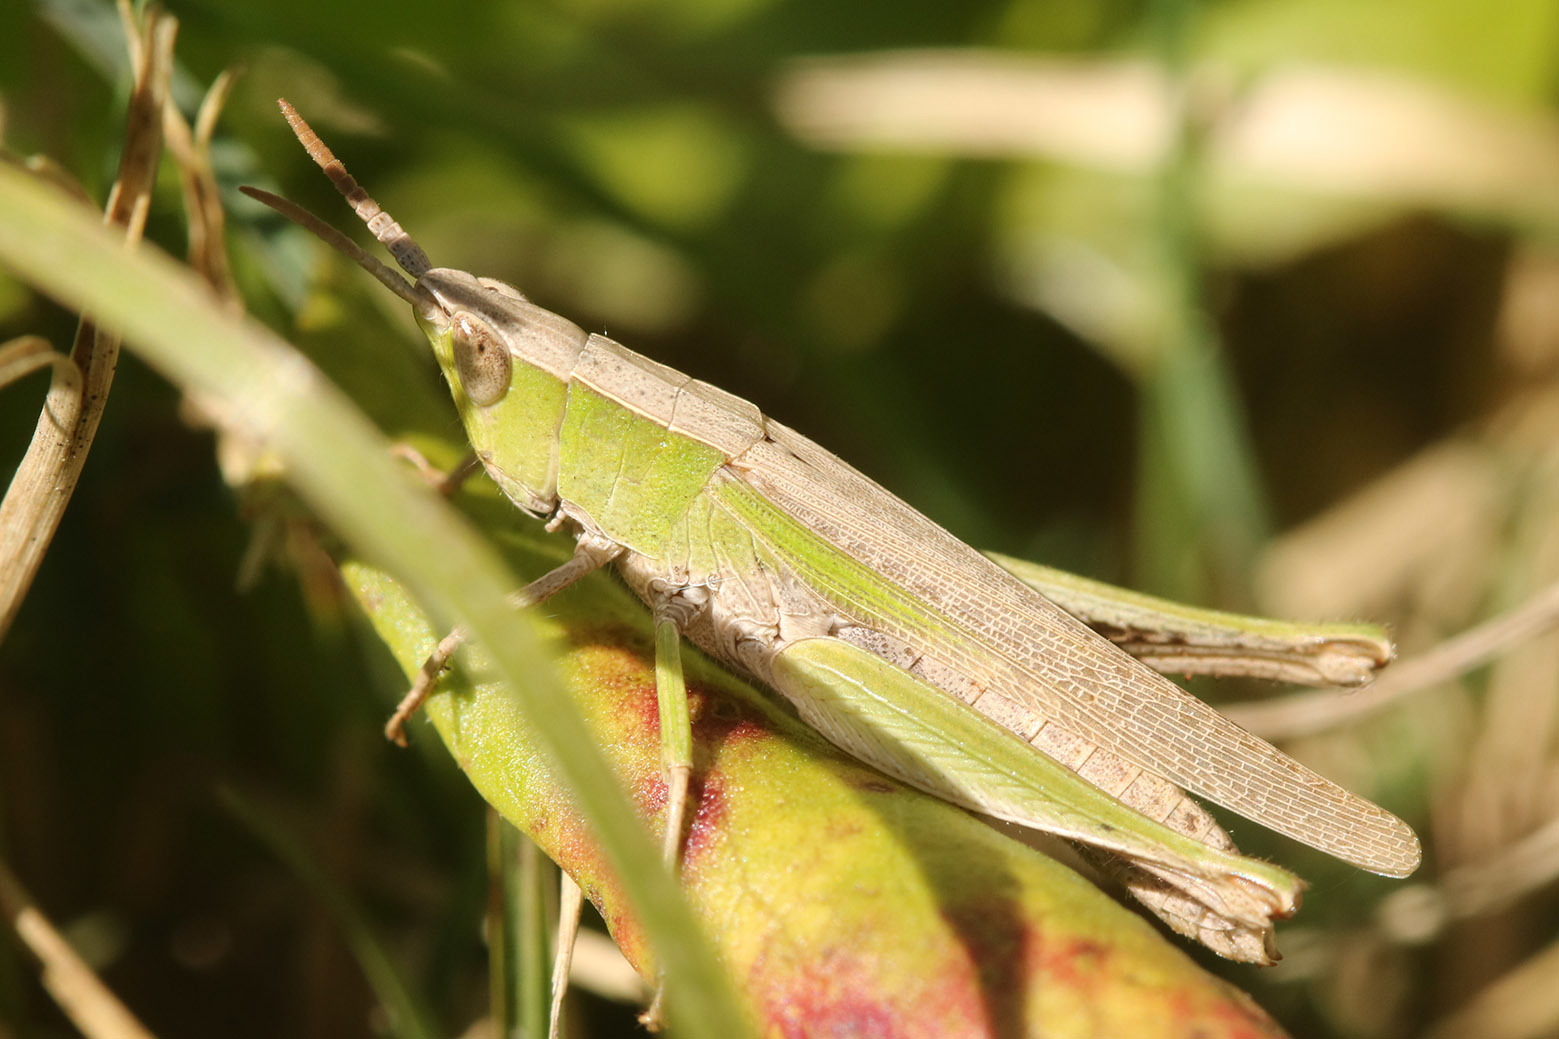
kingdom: Animalia
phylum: Arthropoda
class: Insecta
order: Orthoptera
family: Acrididae
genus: Laplatacris
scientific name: Laplatacris dispar
